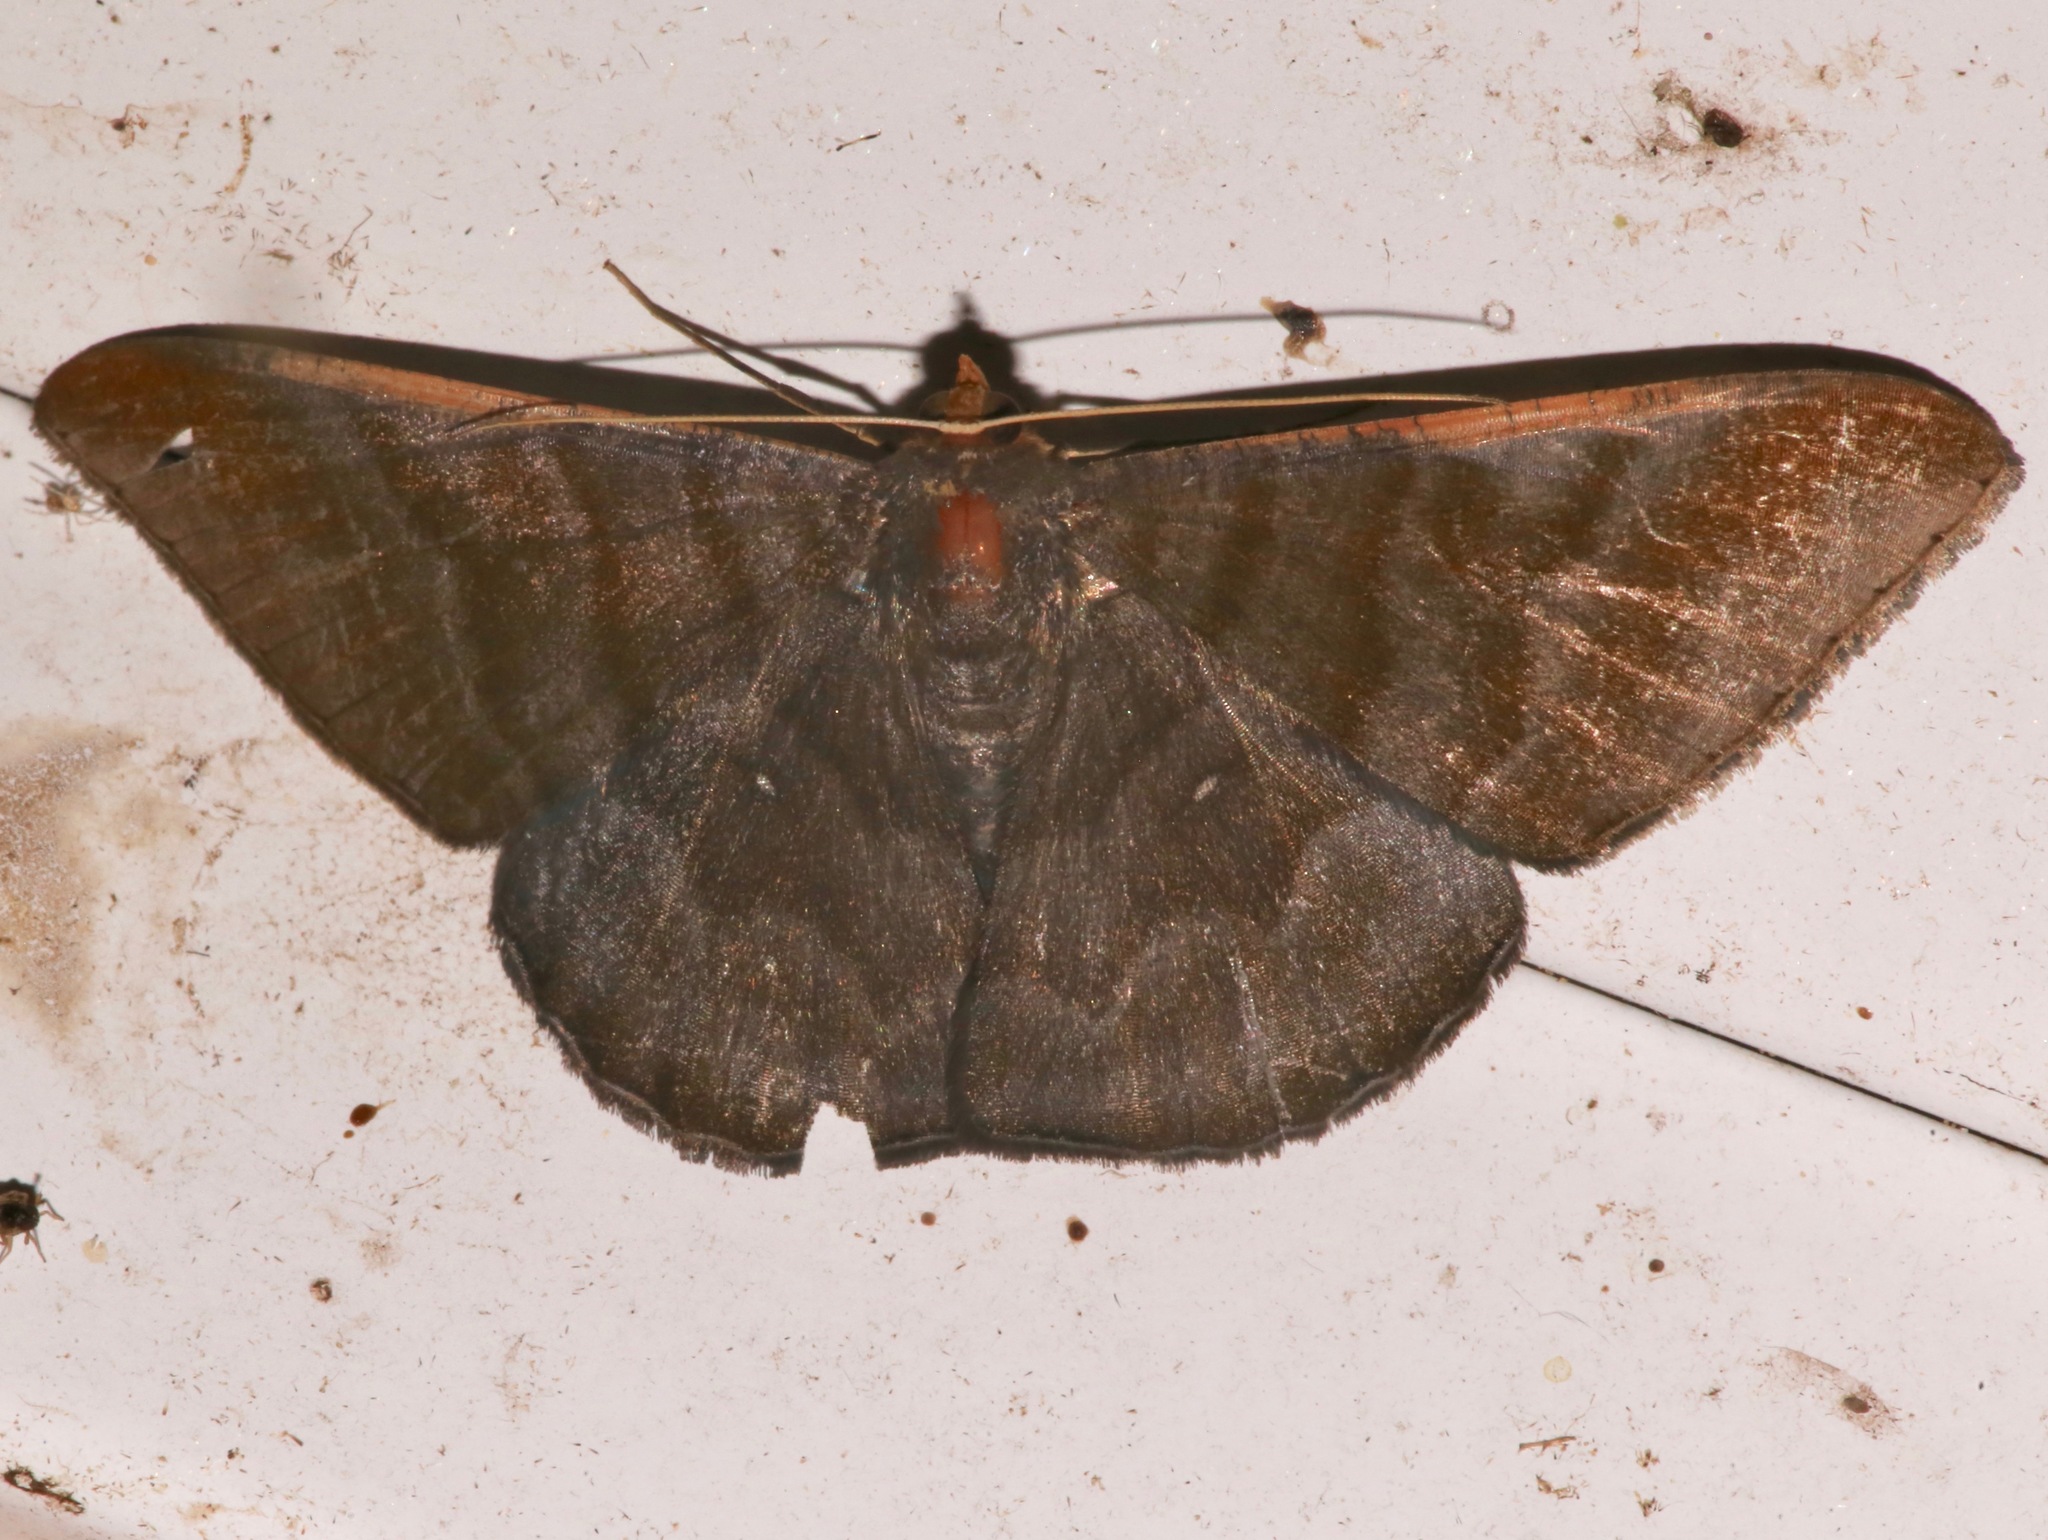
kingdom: Animalia
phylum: Arthropoda
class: Insecta
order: Lepidoptera
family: Geometridae
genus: Sphacelodes
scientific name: Sphacelodes vulneraria
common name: Looper moth
